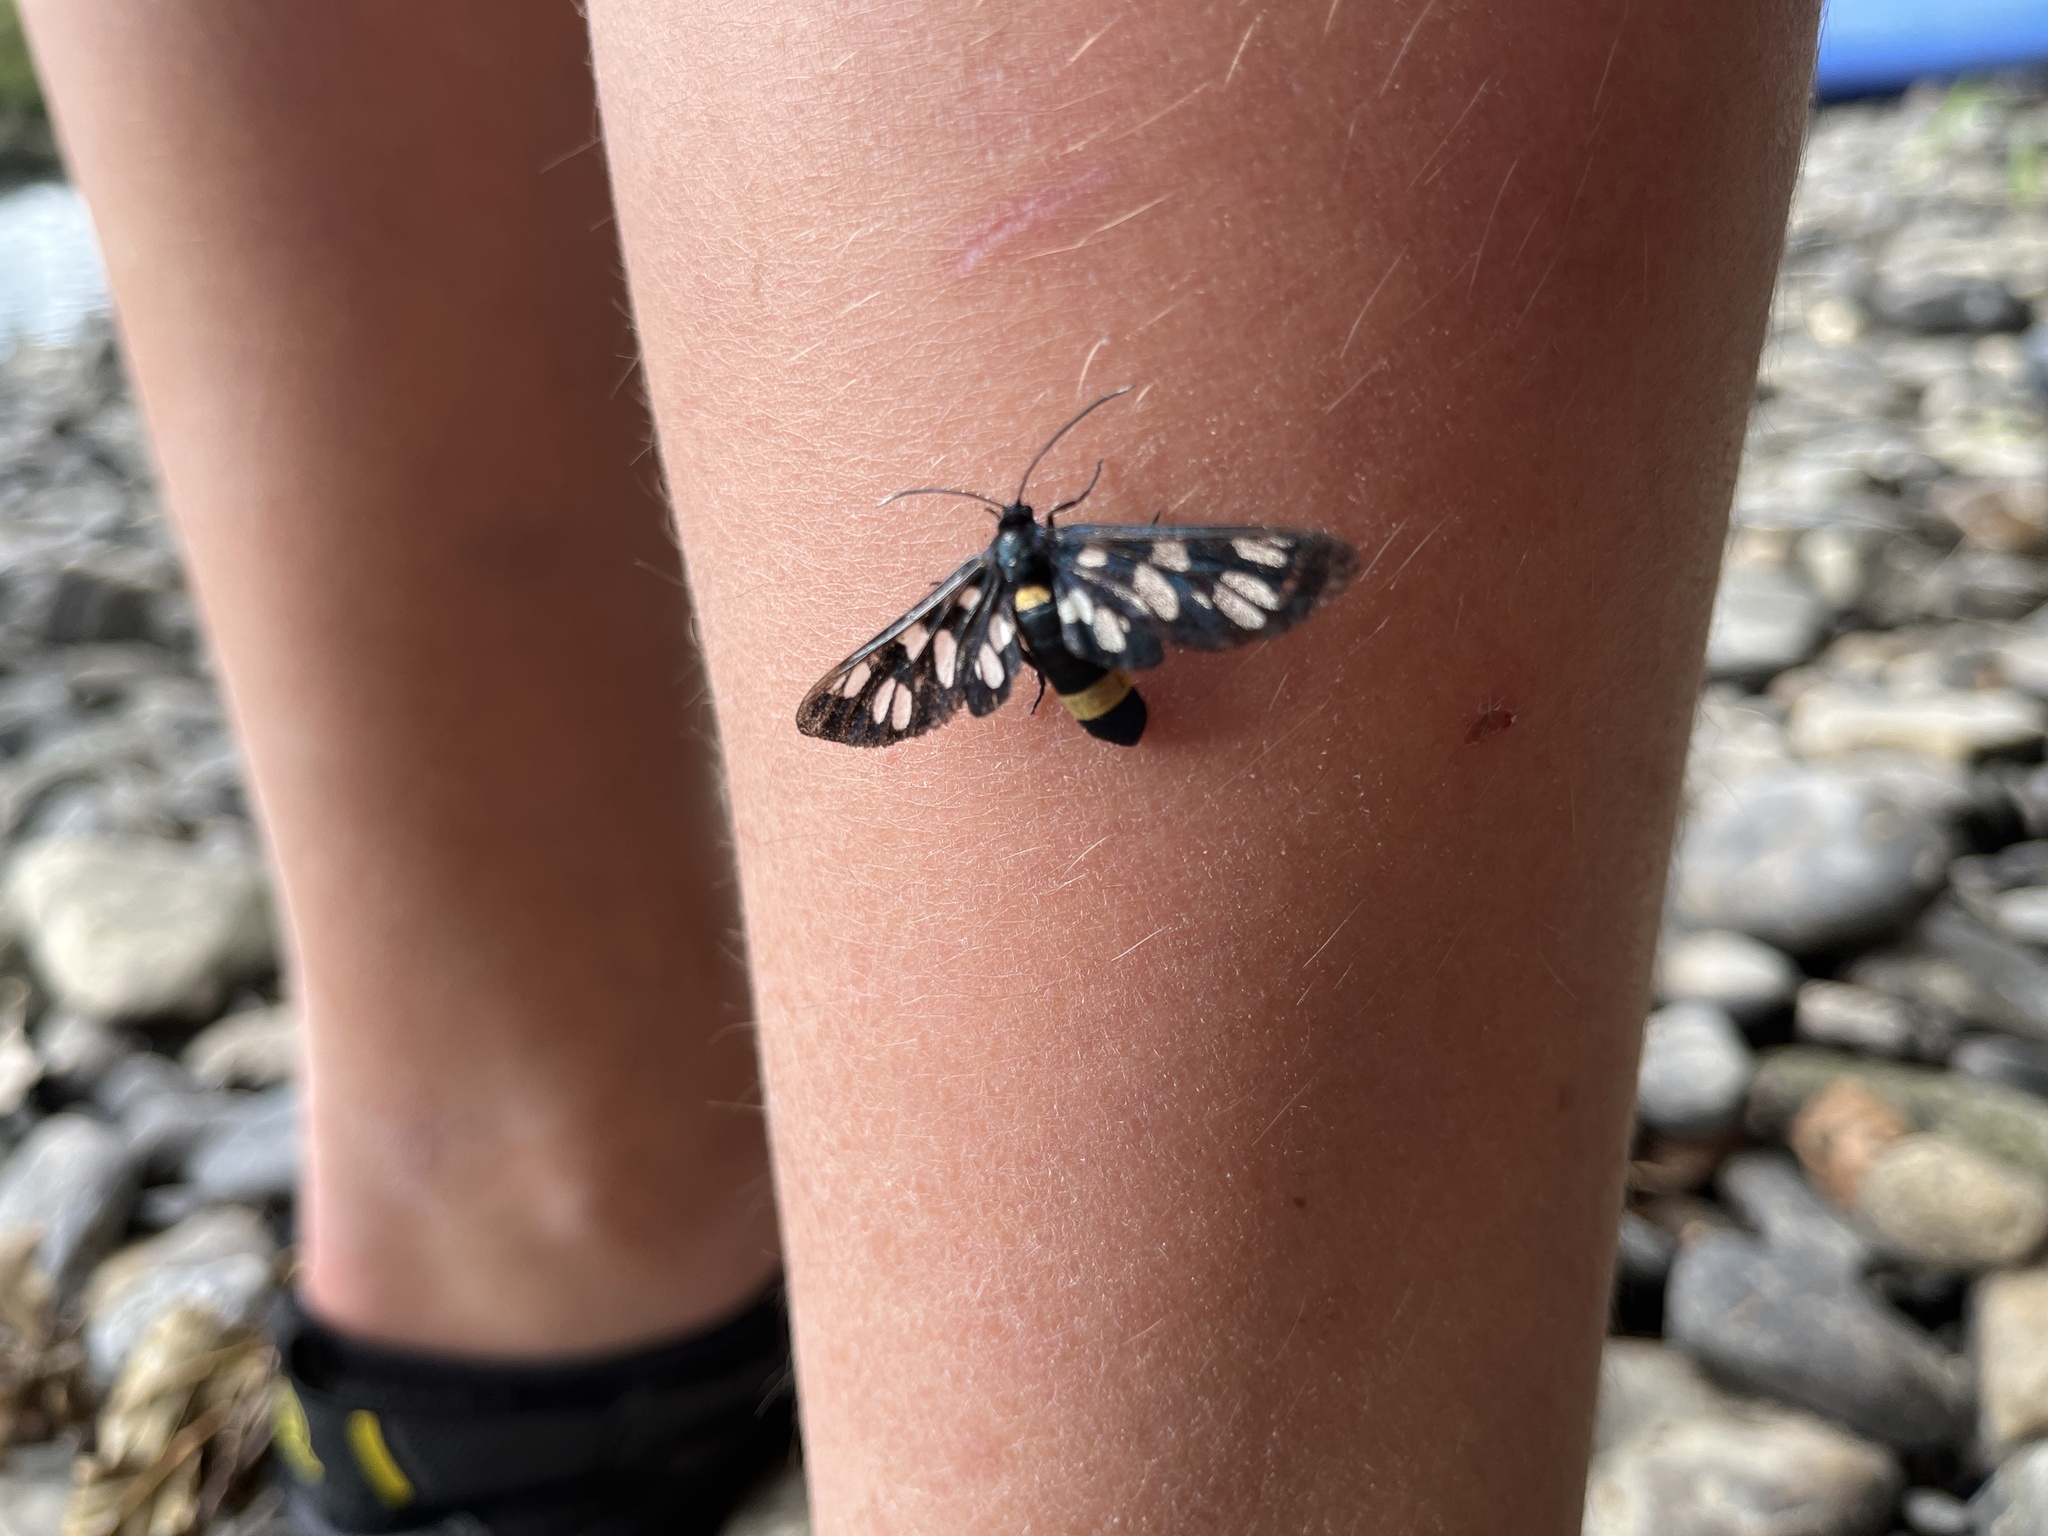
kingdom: Animalia
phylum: Arthropoda
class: Insecta
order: Lepidoptera
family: Erebidae
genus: Amata
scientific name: Amata phegea
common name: Nine-spotted
